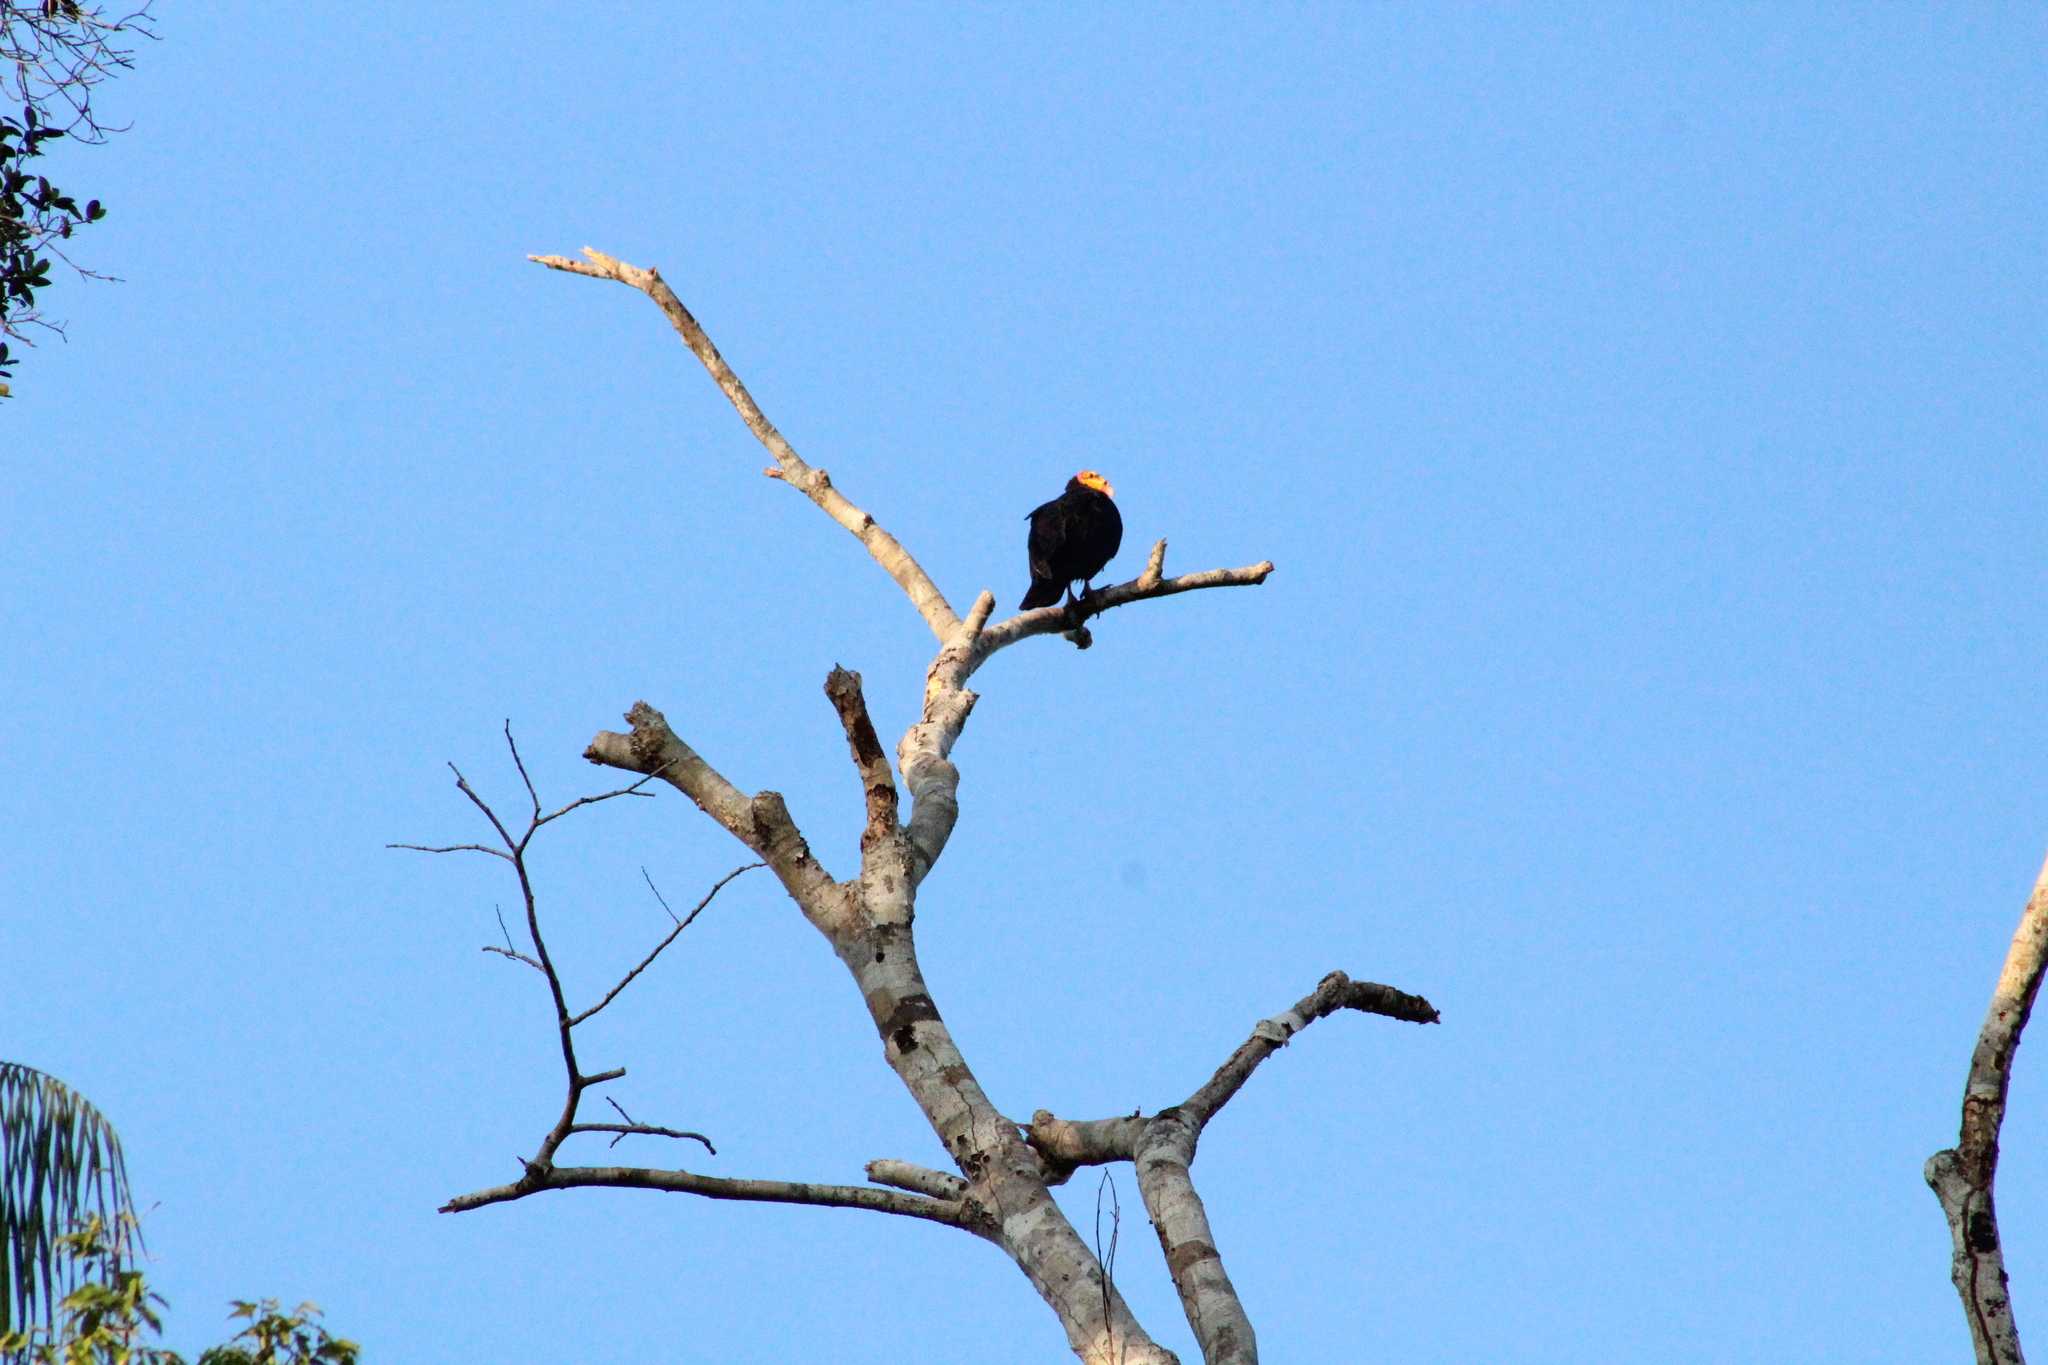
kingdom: Animalia
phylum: Chordata
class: Aves
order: Accipitriformes
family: Cathartidae
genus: Cathartes
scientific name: Cathartes melambrotus
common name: Greater yellow-headed vulture
